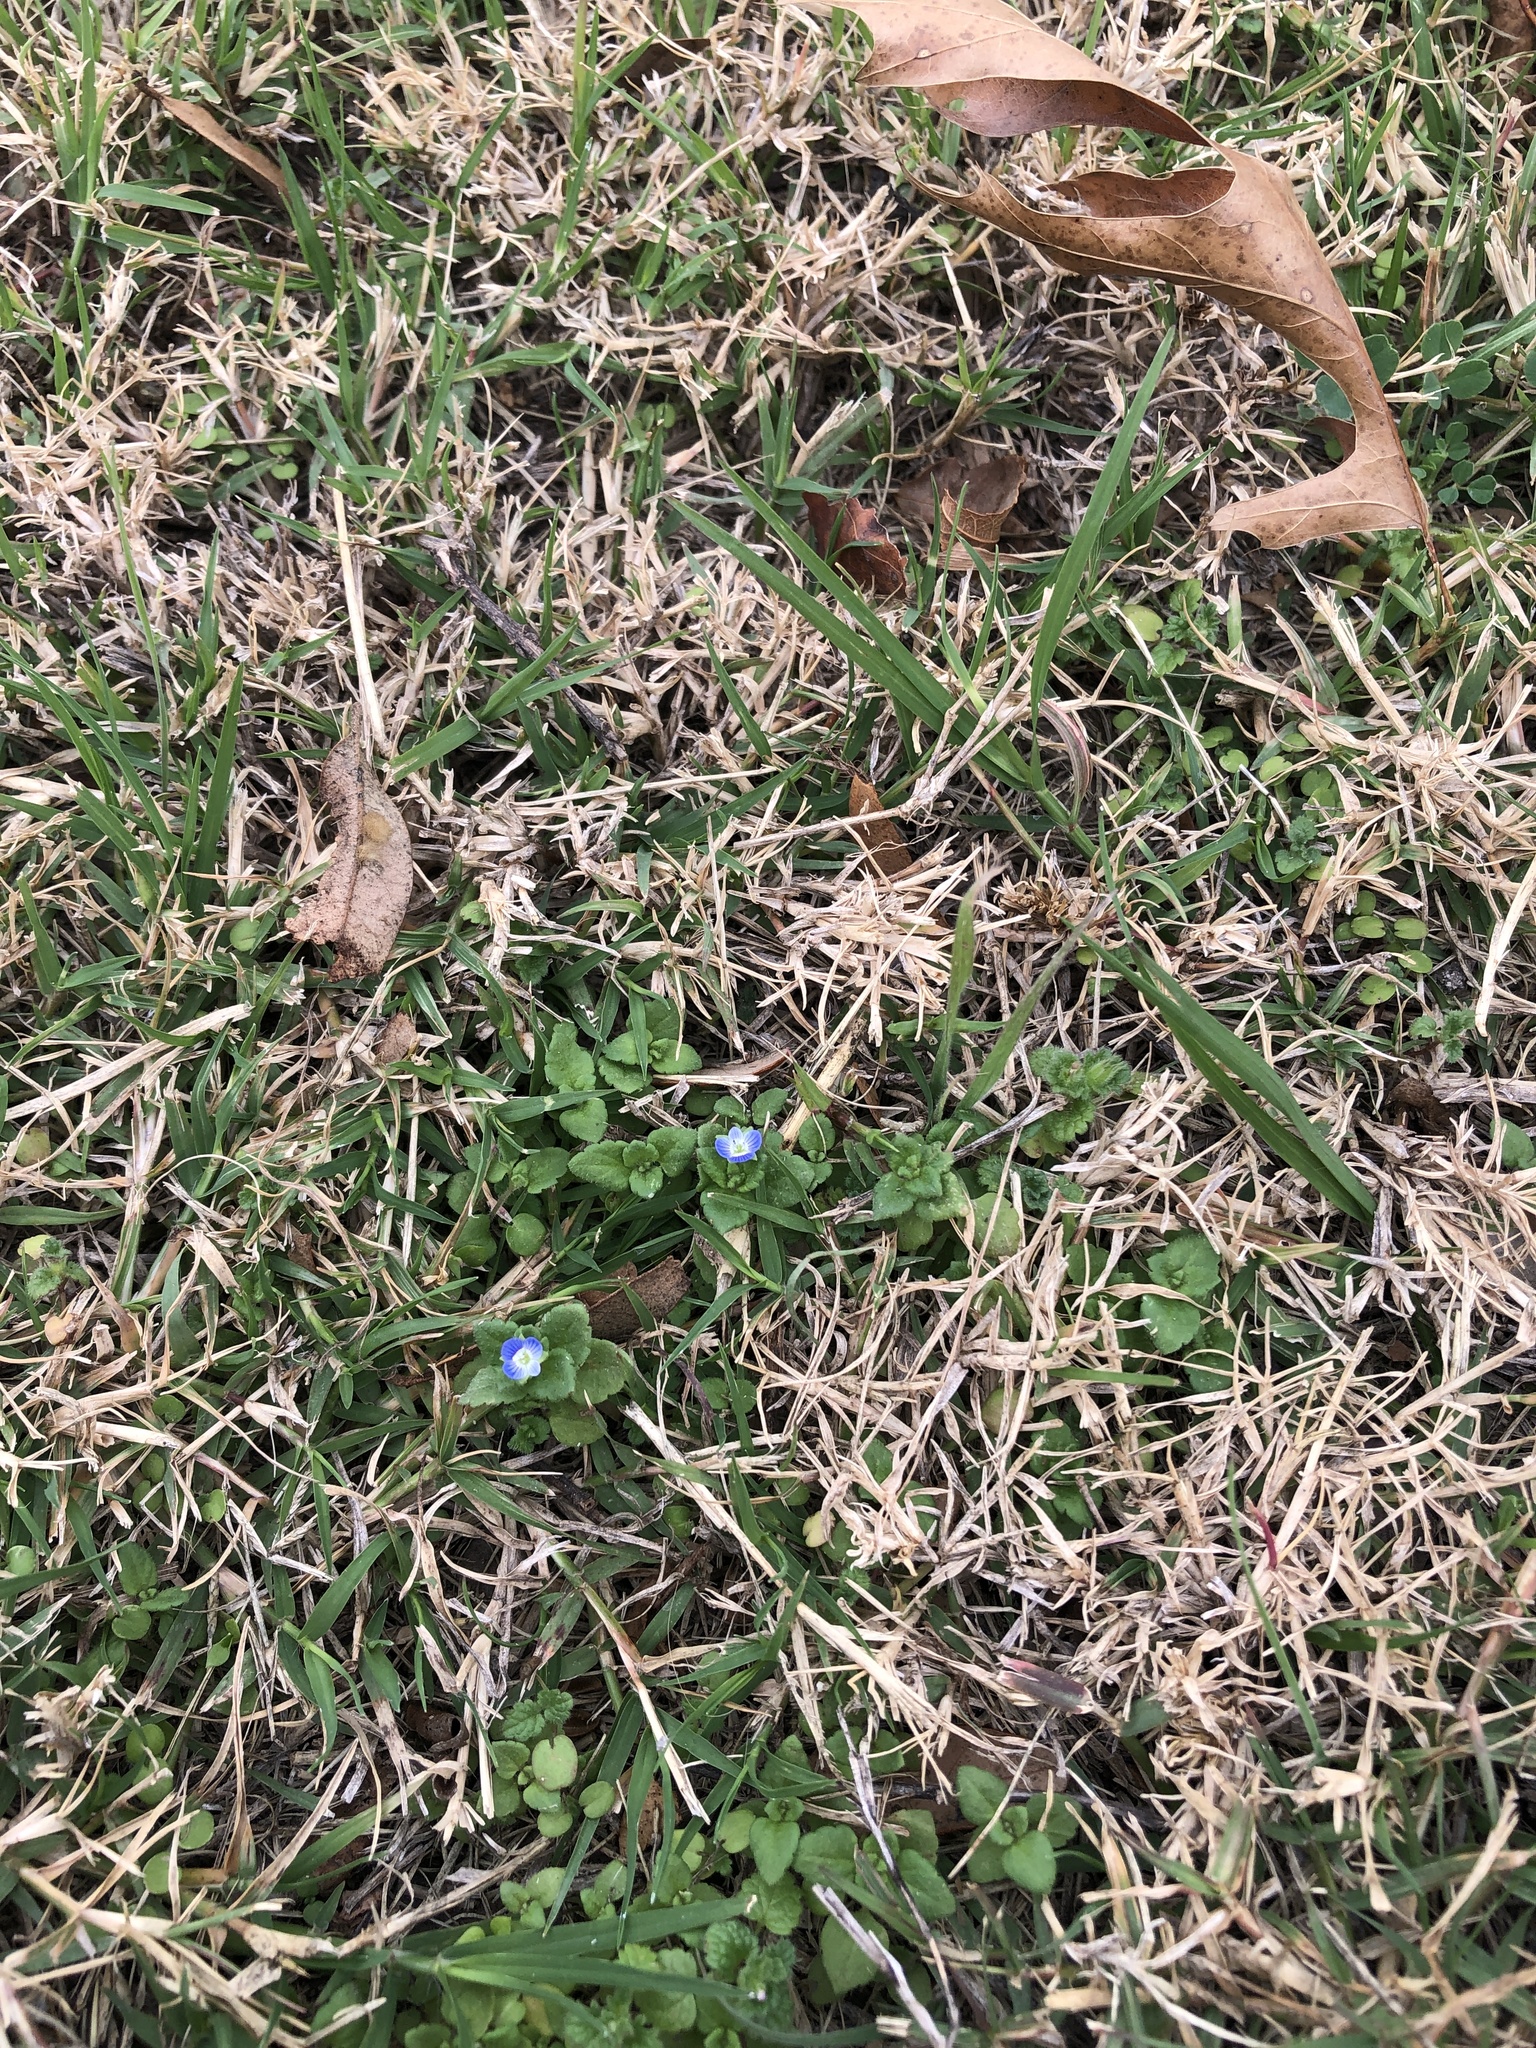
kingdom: Plantae
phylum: Tracheophyta
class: Magnoliopsida
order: Lamiales
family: Plantaginaceae
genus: Veronica
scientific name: Veronica polita
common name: Grey field-speedwell
